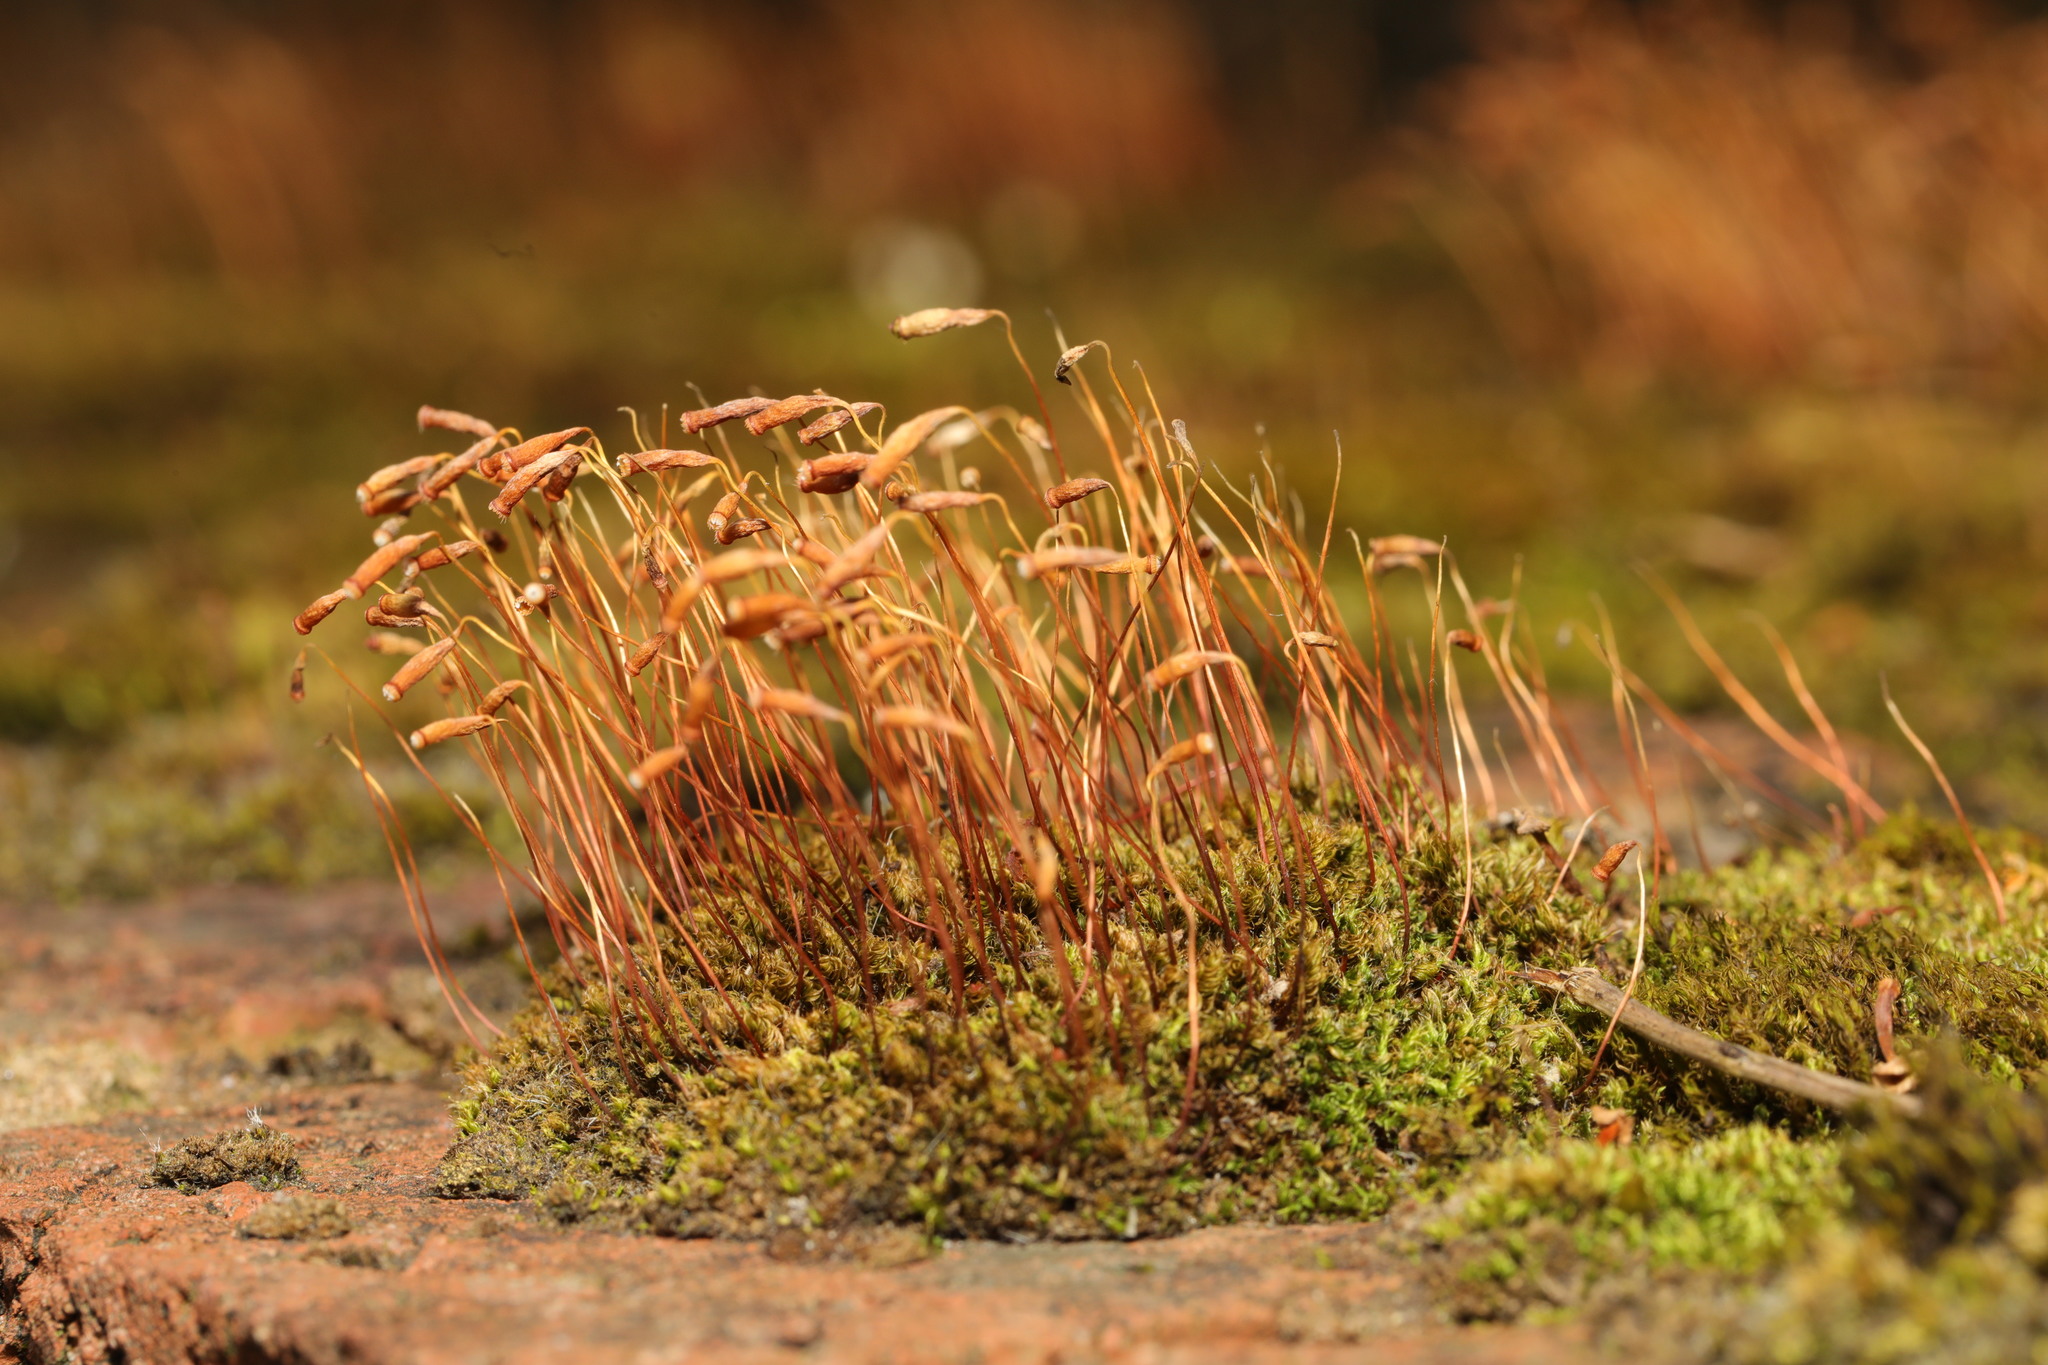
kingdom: Plantae
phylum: Bryophyta
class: Bryopsida
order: Bryales
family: Bryaceae
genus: Rosulabryum
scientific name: Rosulabryum capillare
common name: Capillary thread-moss
